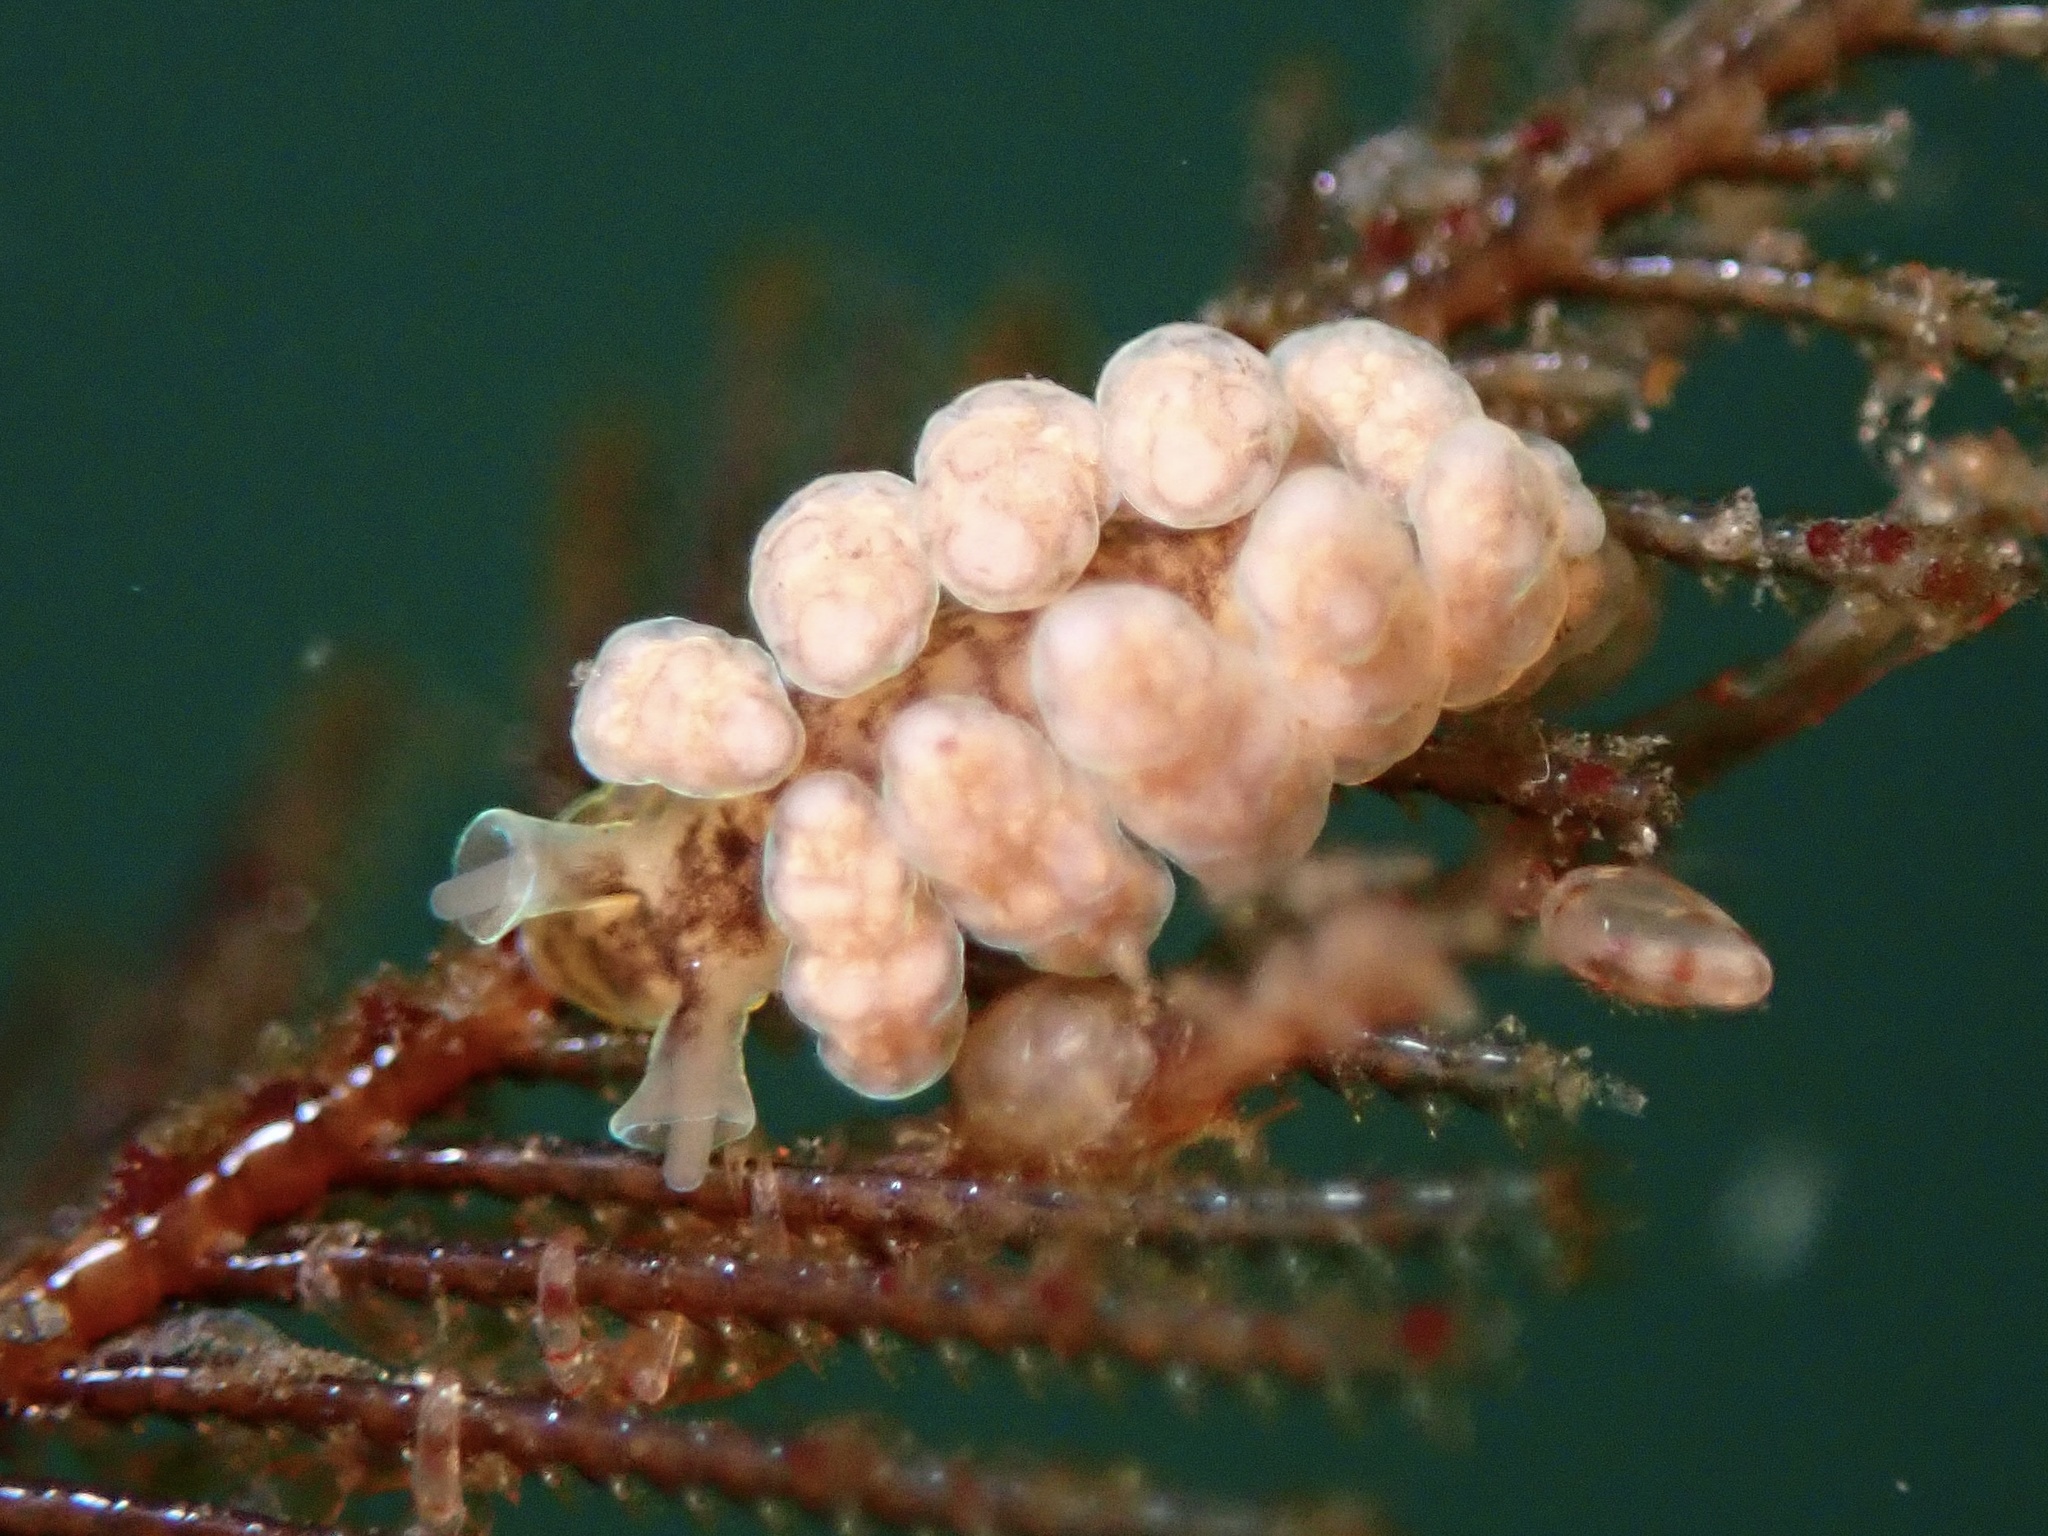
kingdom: Animalia
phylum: Mollusca
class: Gastropoda
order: Nudibranchia
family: Dotidae
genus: Doto
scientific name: Doto columbiana
